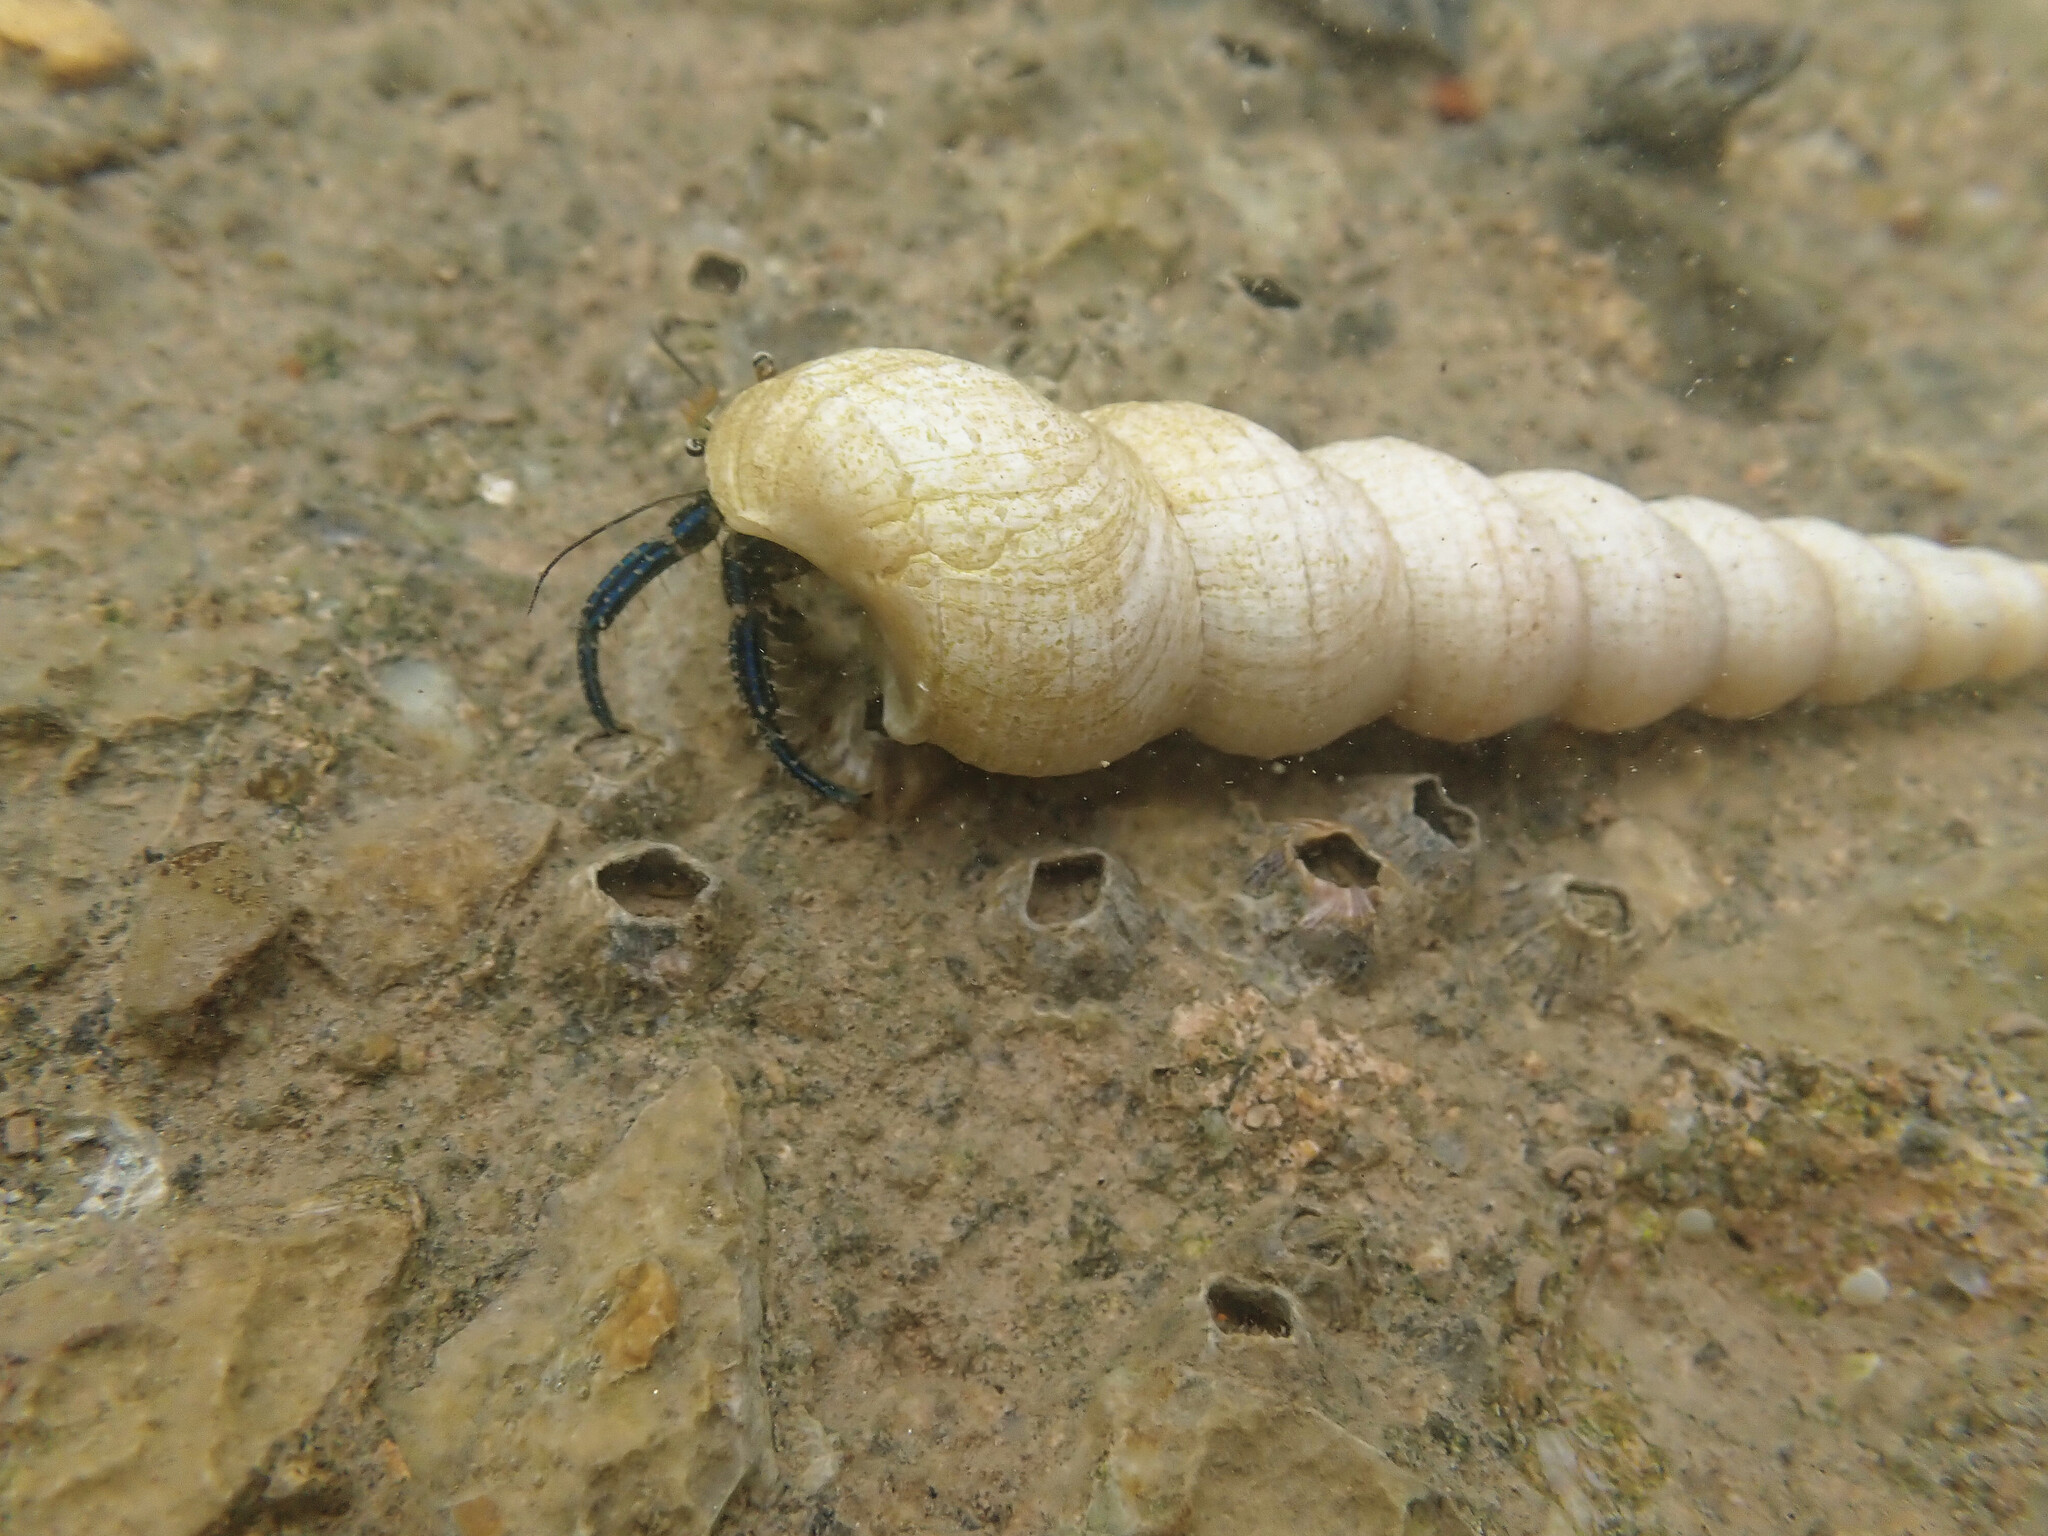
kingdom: Animalia
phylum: Arthropoda
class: Malacostraca
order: Decapoda
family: Diogenidae
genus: Clibanarius
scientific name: Clibanarius longitarsus
